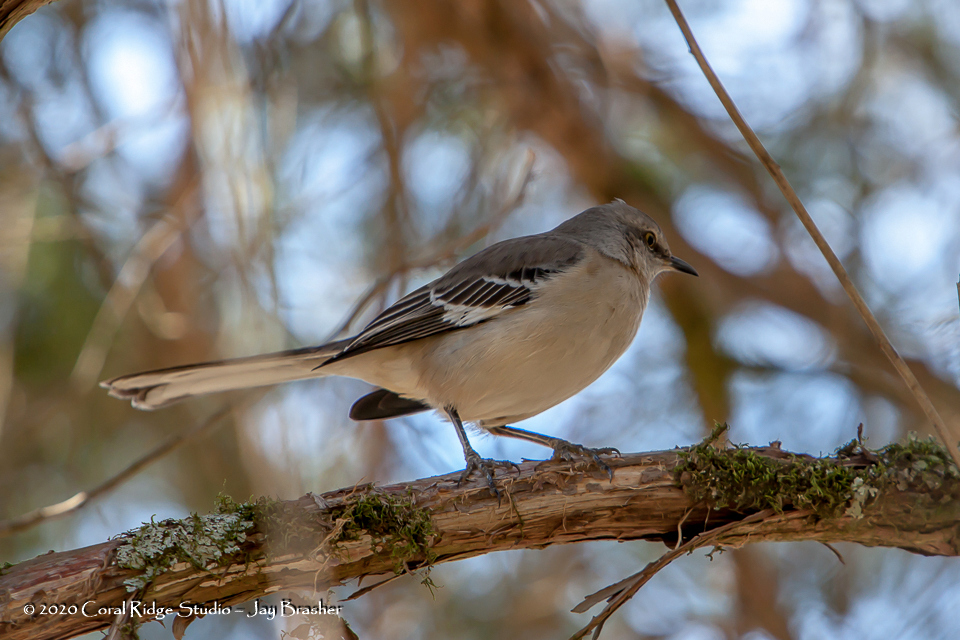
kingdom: Animalia
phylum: Chordata
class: Aves
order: Passeriformes
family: Mimidae
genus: Mimus
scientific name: Mimus polyglottos
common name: Northern mockingbird
